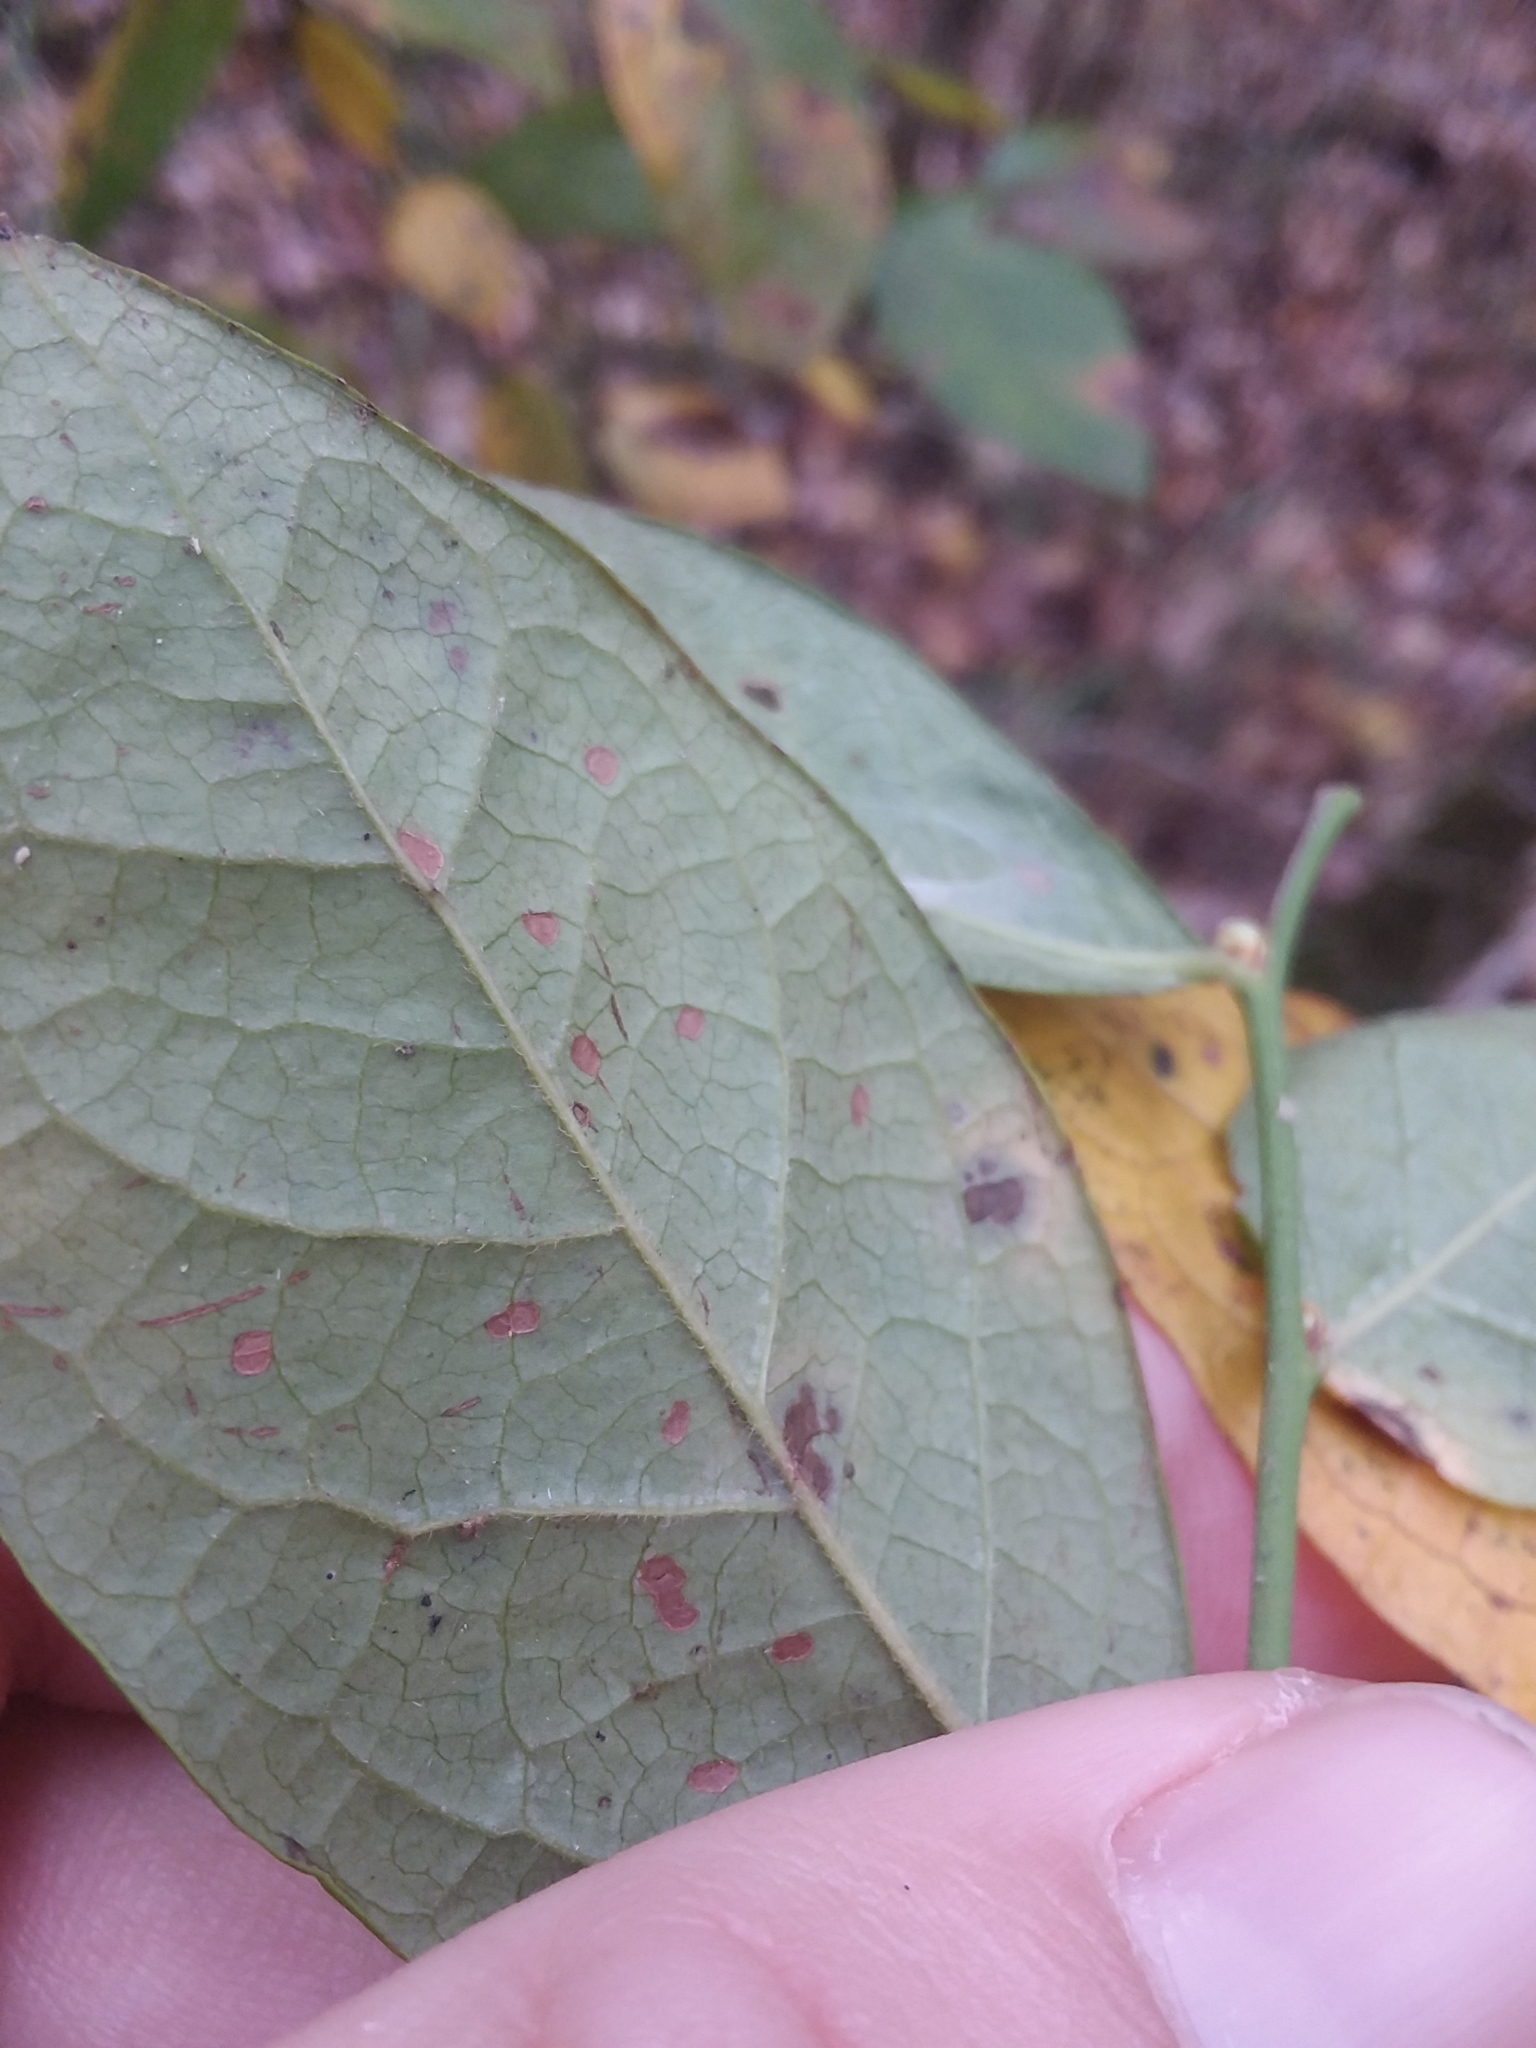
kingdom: Plantae
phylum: Tracheophyta
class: Magnoliopsida
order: Ericales
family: Ericaceae
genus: Vaccinium
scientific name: Vaccinium corymbosum
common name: Blueberry
